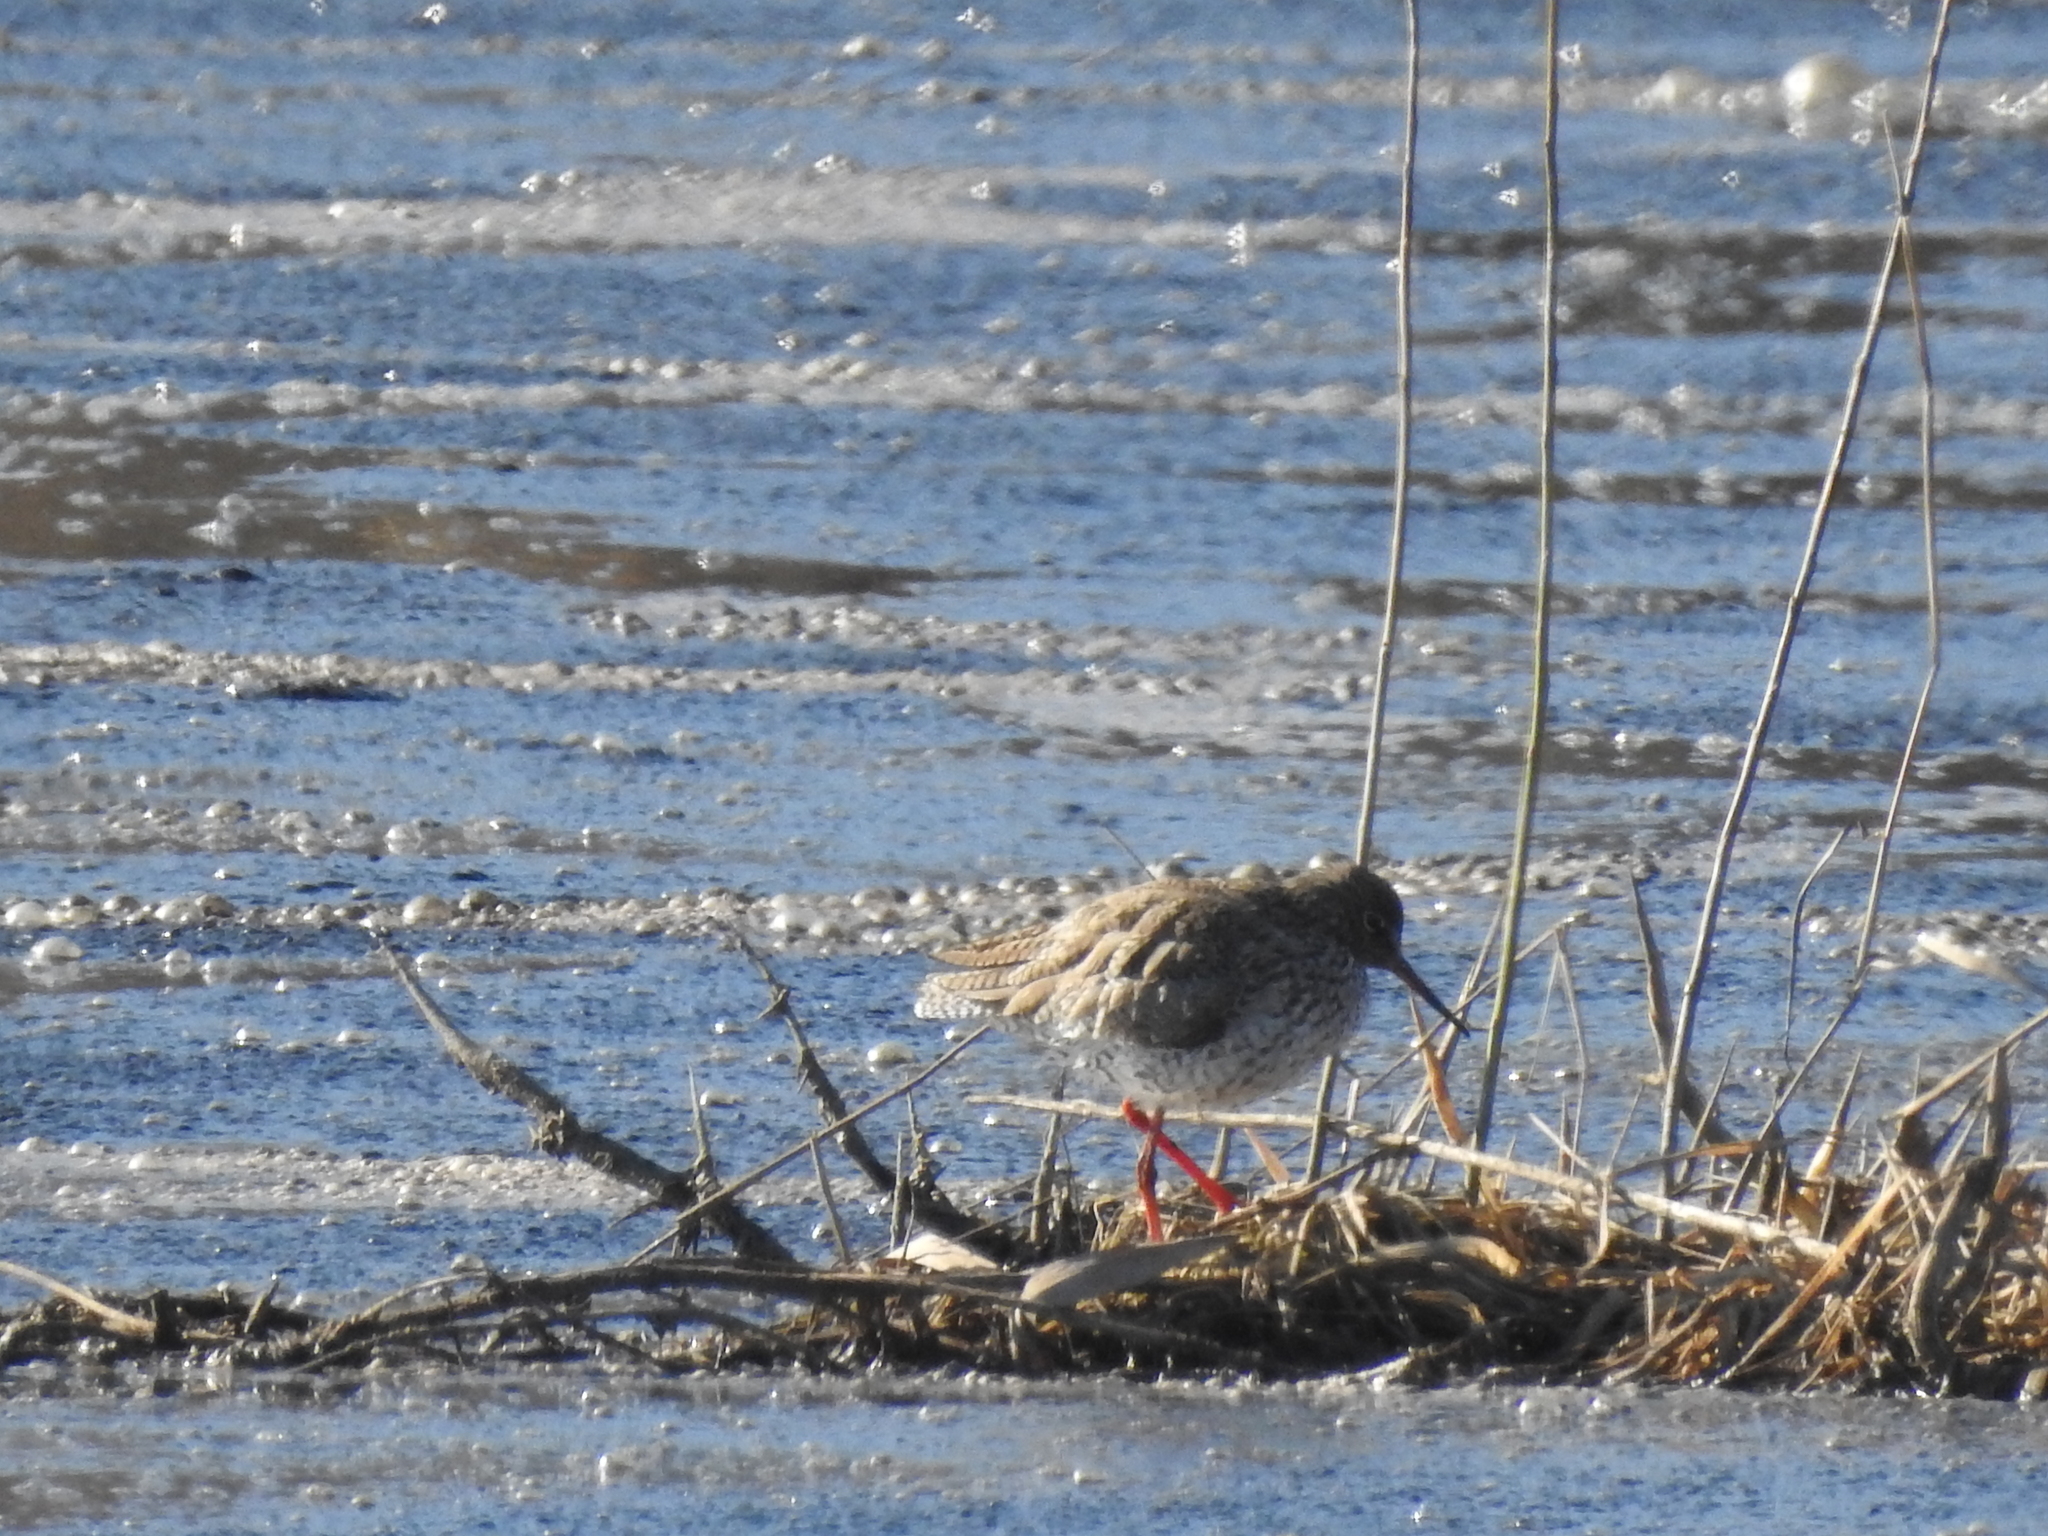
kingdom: Animalia
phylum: Chordata
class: Aves
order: Charadriiformes
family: Scolopacidae
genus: Tringa
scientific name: Tringa totanus
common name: Common redshank
